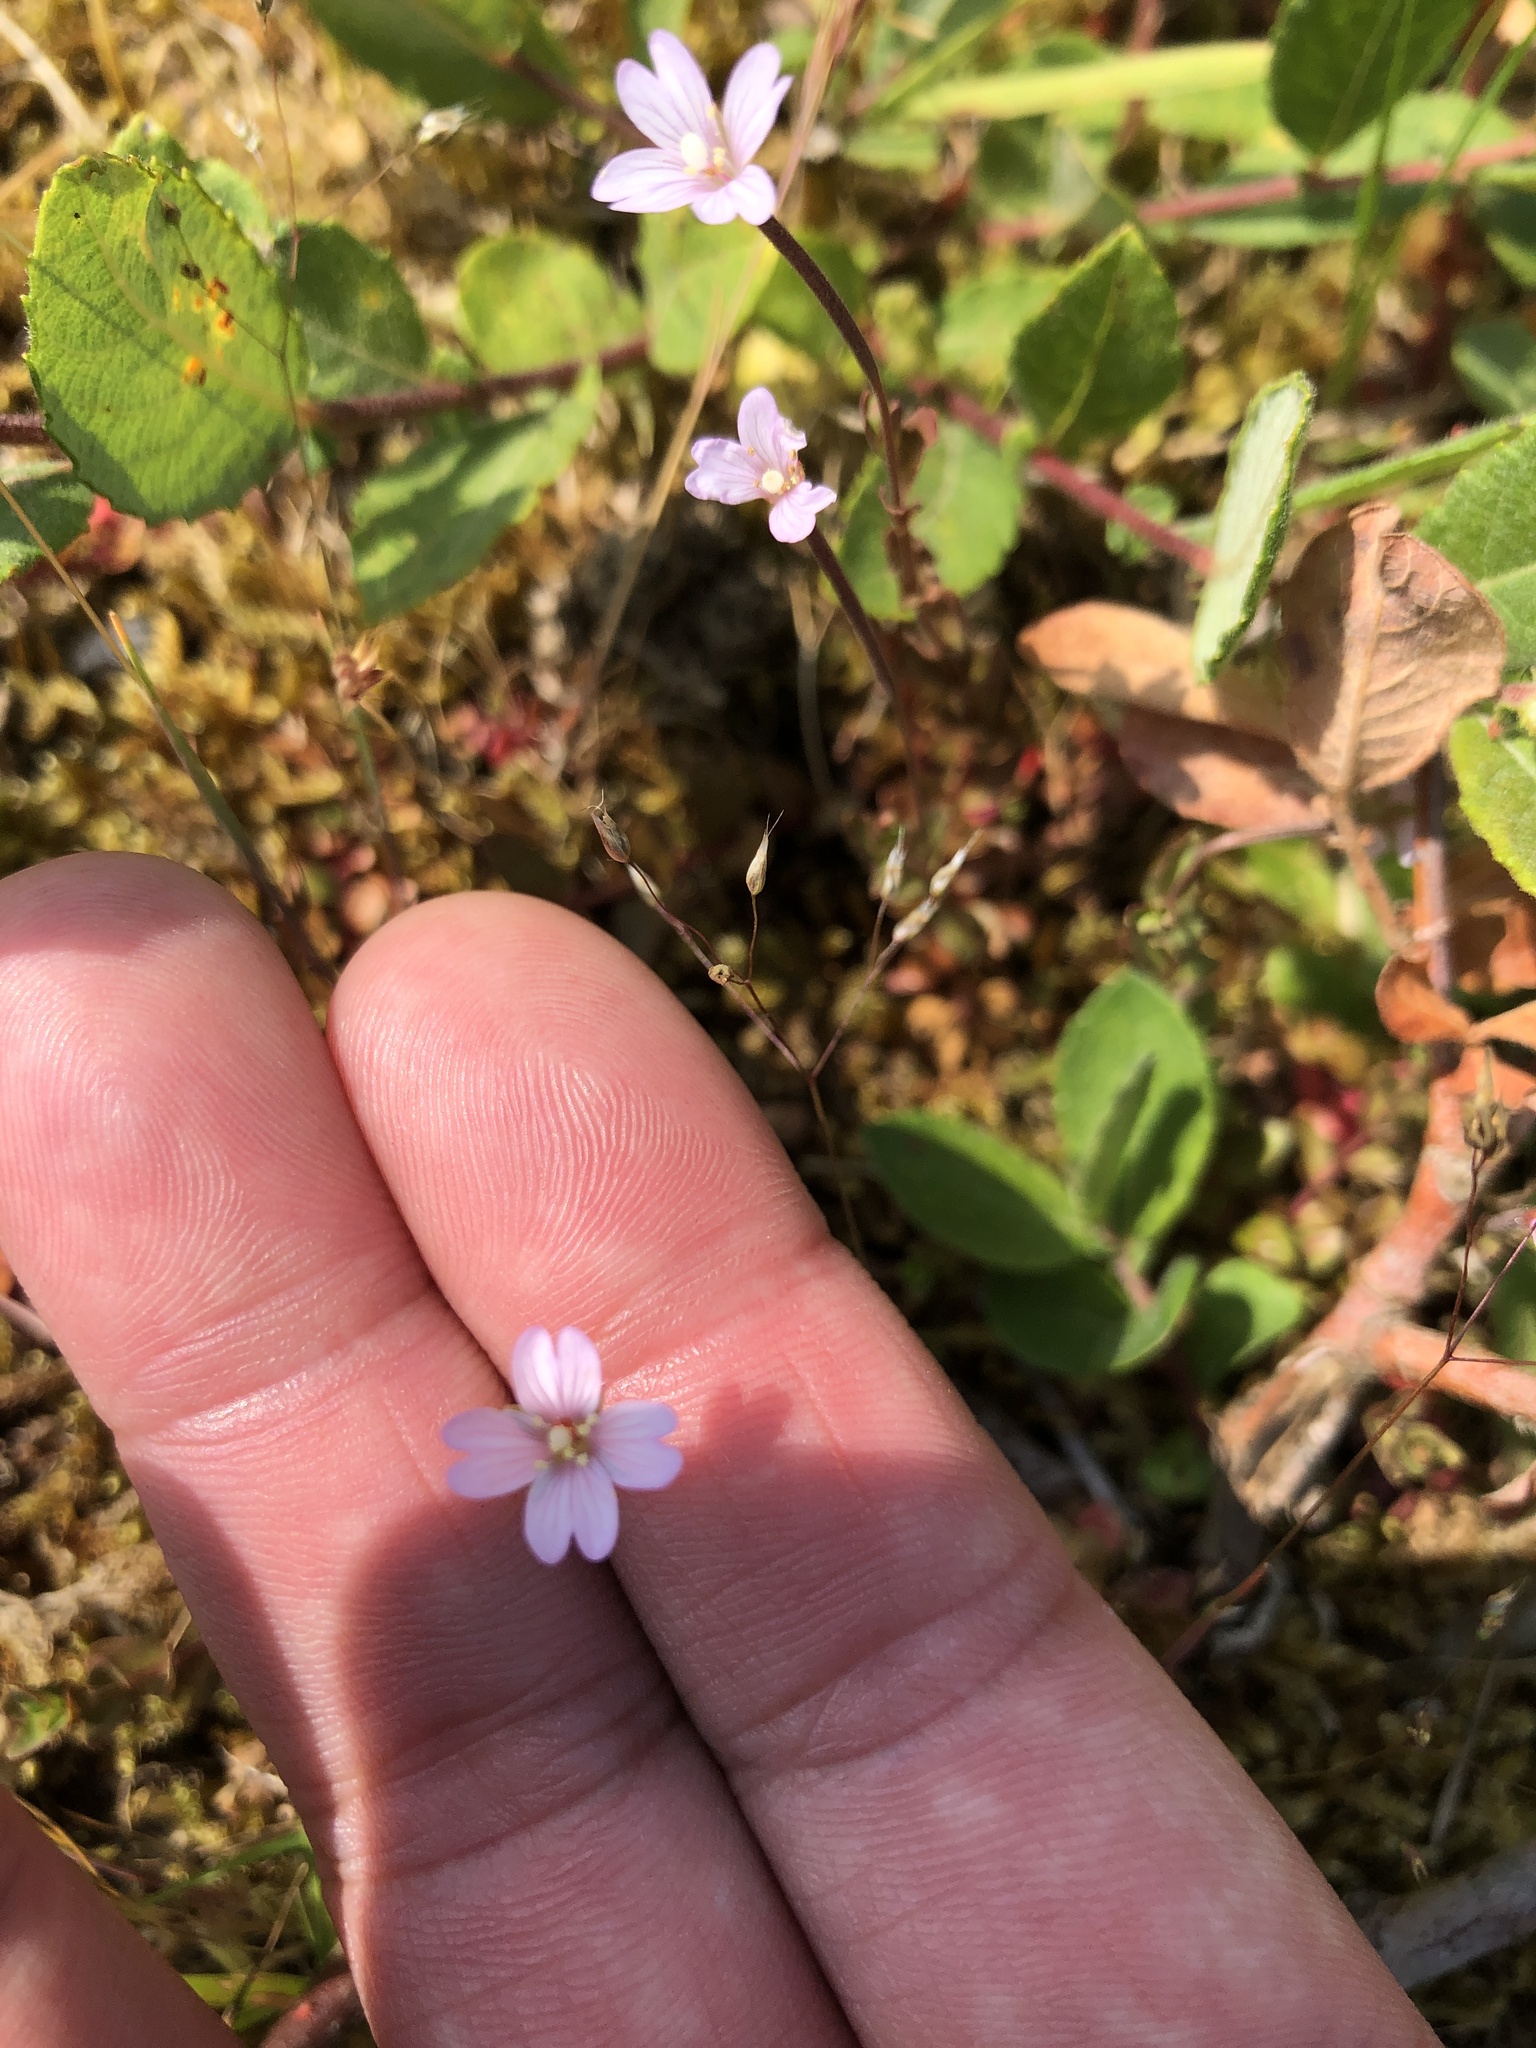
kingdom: Plantae
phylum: Tracheophyta
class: Magnoliopsida
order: Myrtales
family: Onagraceae
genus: Epilobium
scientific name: Epilobium ciliatum
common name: American willowherb
